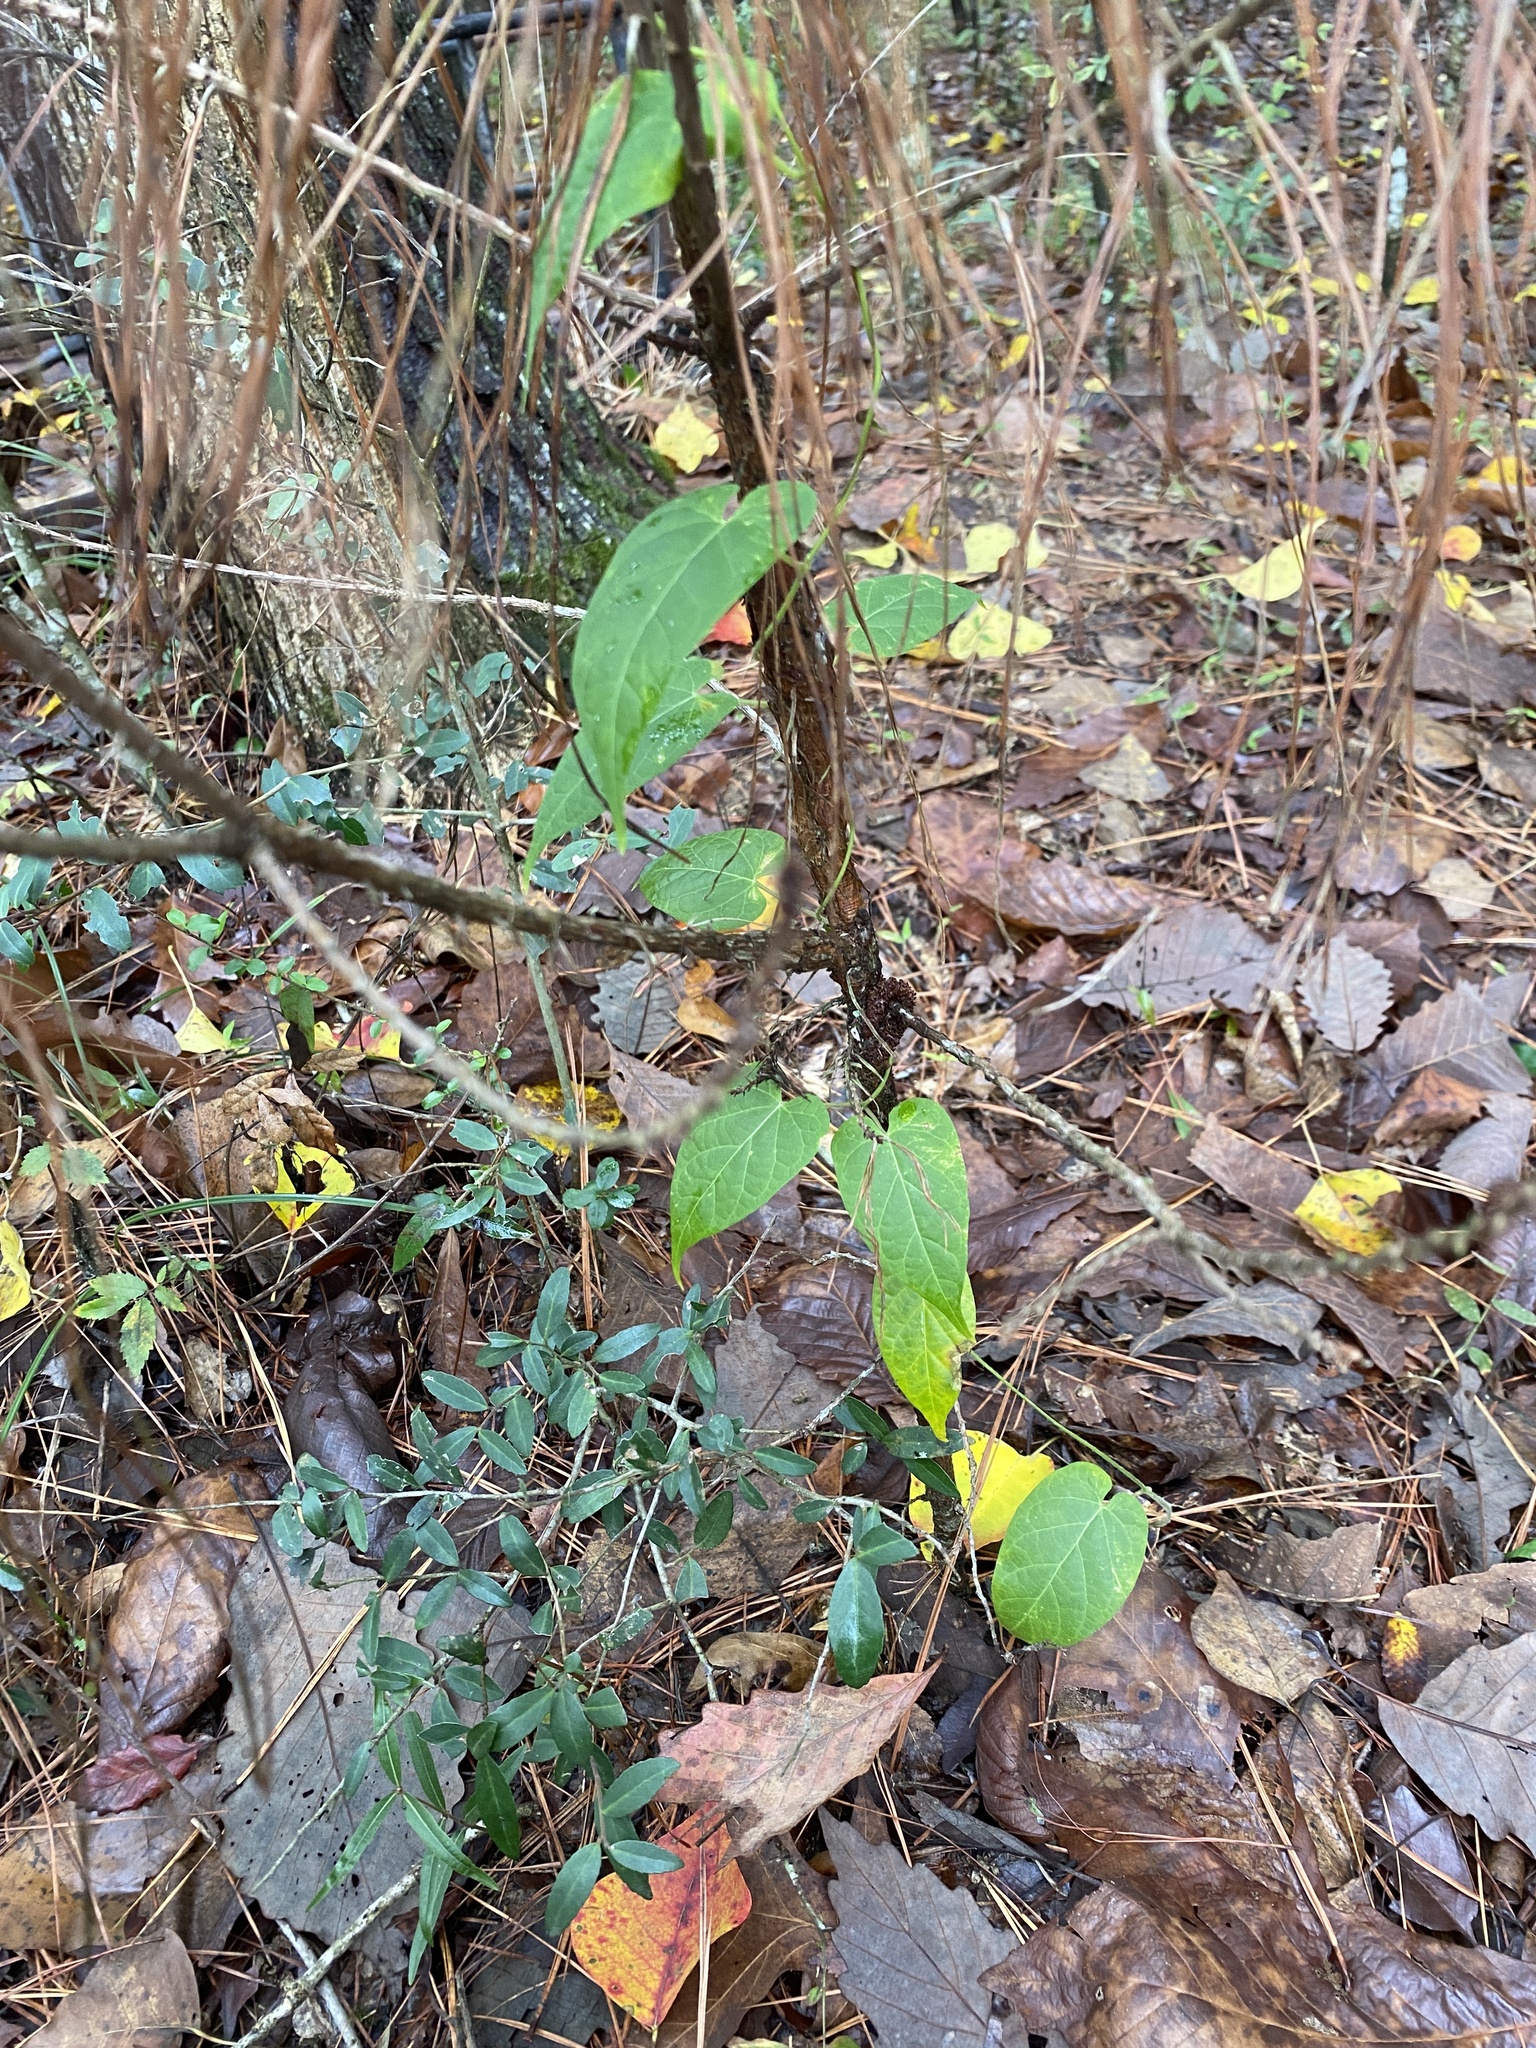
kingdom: Plantae
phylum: Tracheophyta
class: Magnoliopsida
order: Gentianales
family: Apocynaceae
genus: Gonolobus
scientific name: Gonolobus suberosus
